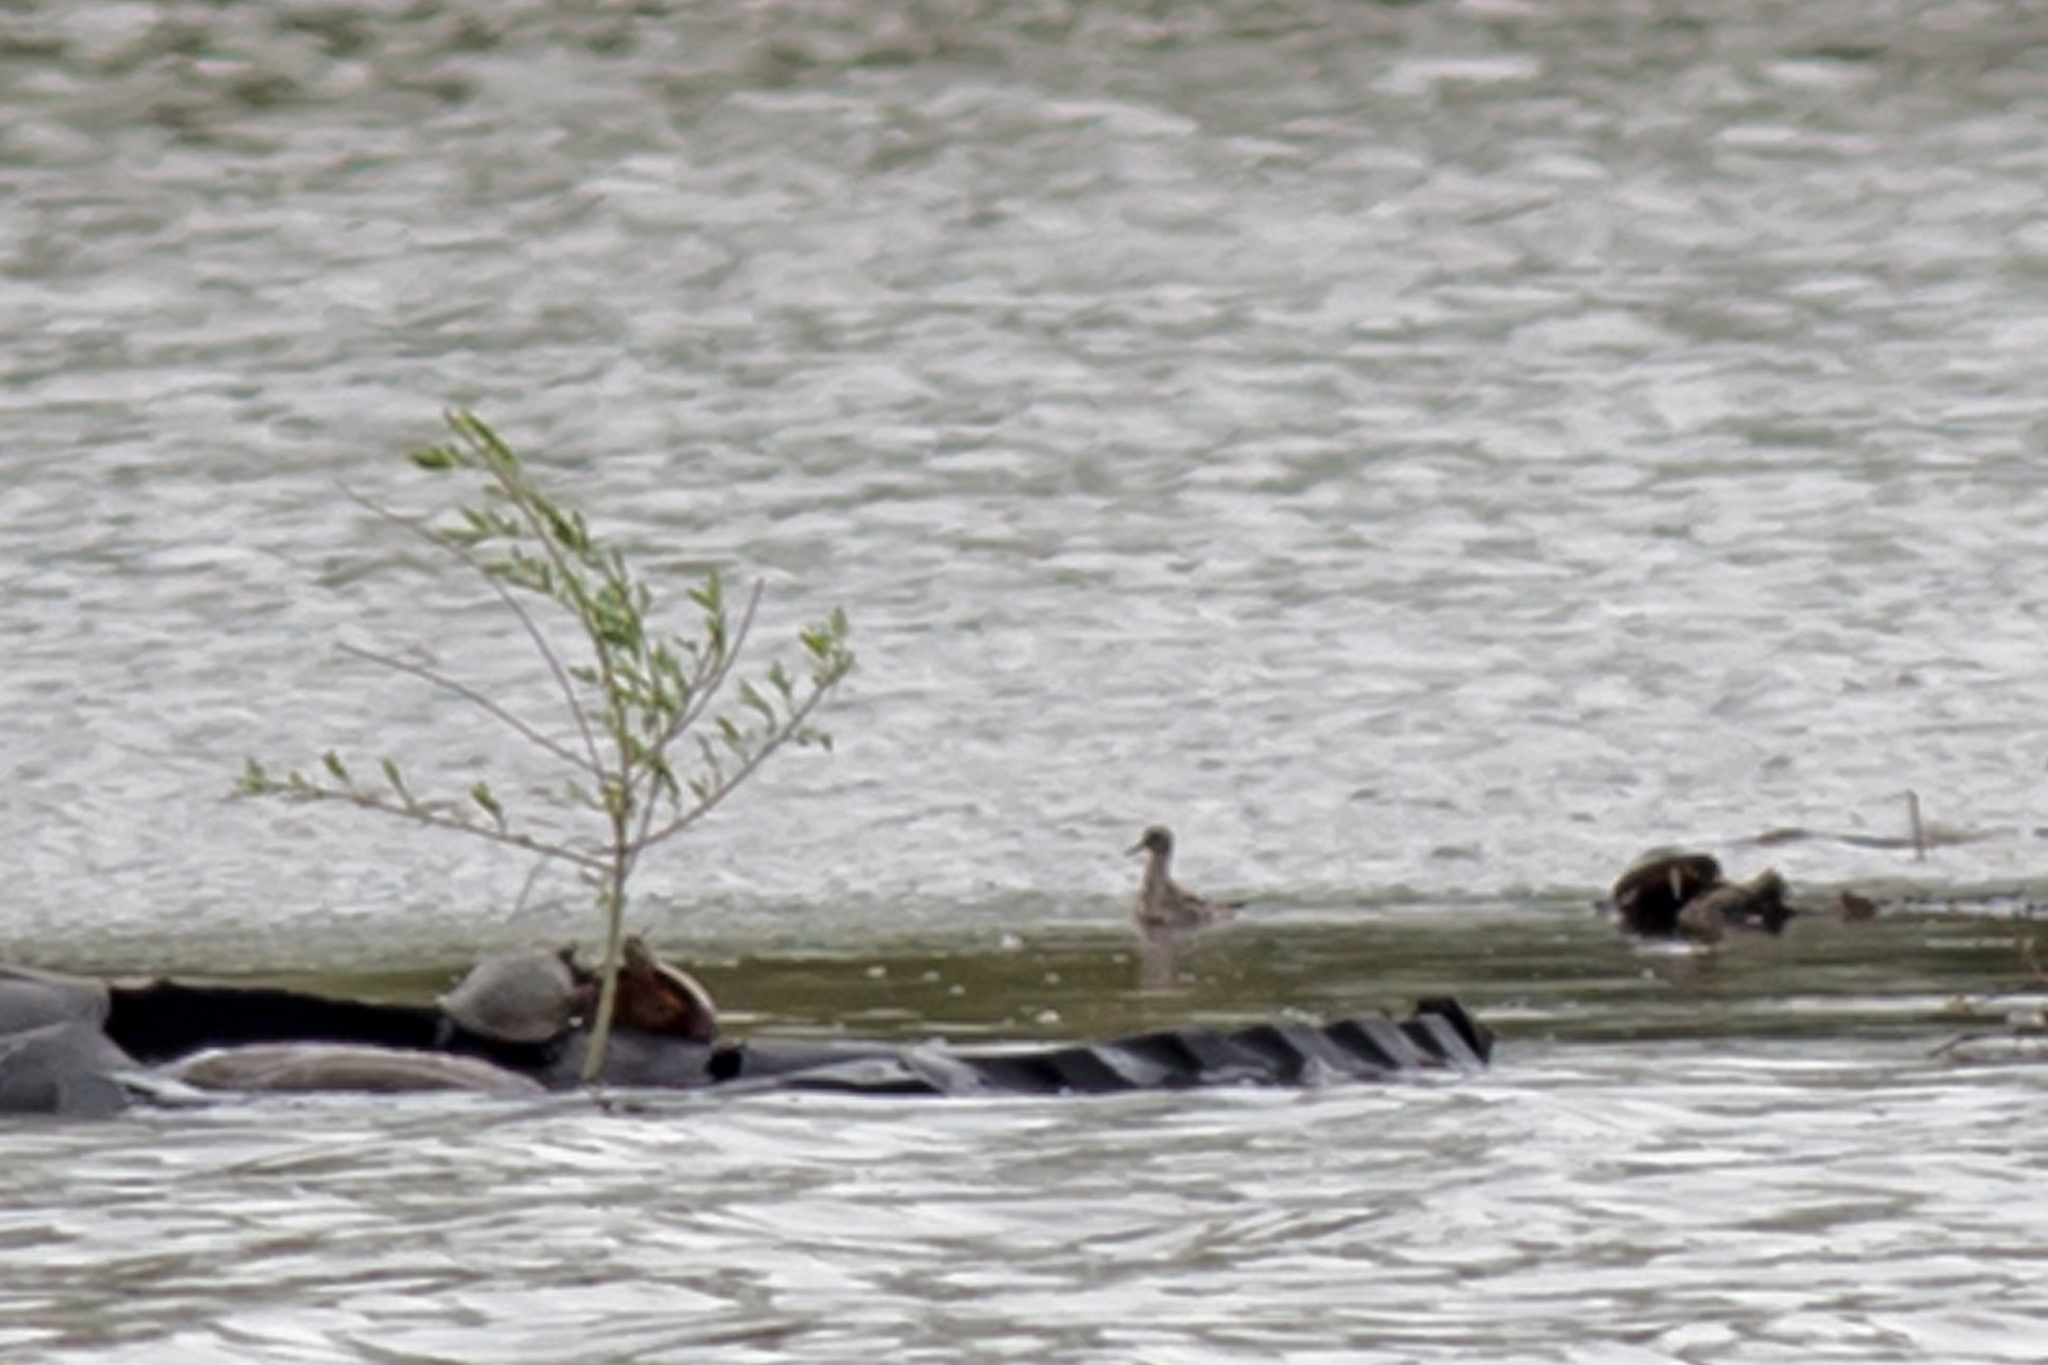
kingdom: Animalia
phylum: Chordata
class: Aves
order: Charadriiformes
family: Scolopacidae
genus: Phalaropus
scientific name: Phalaropus fulicarius
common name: Red phalarope
